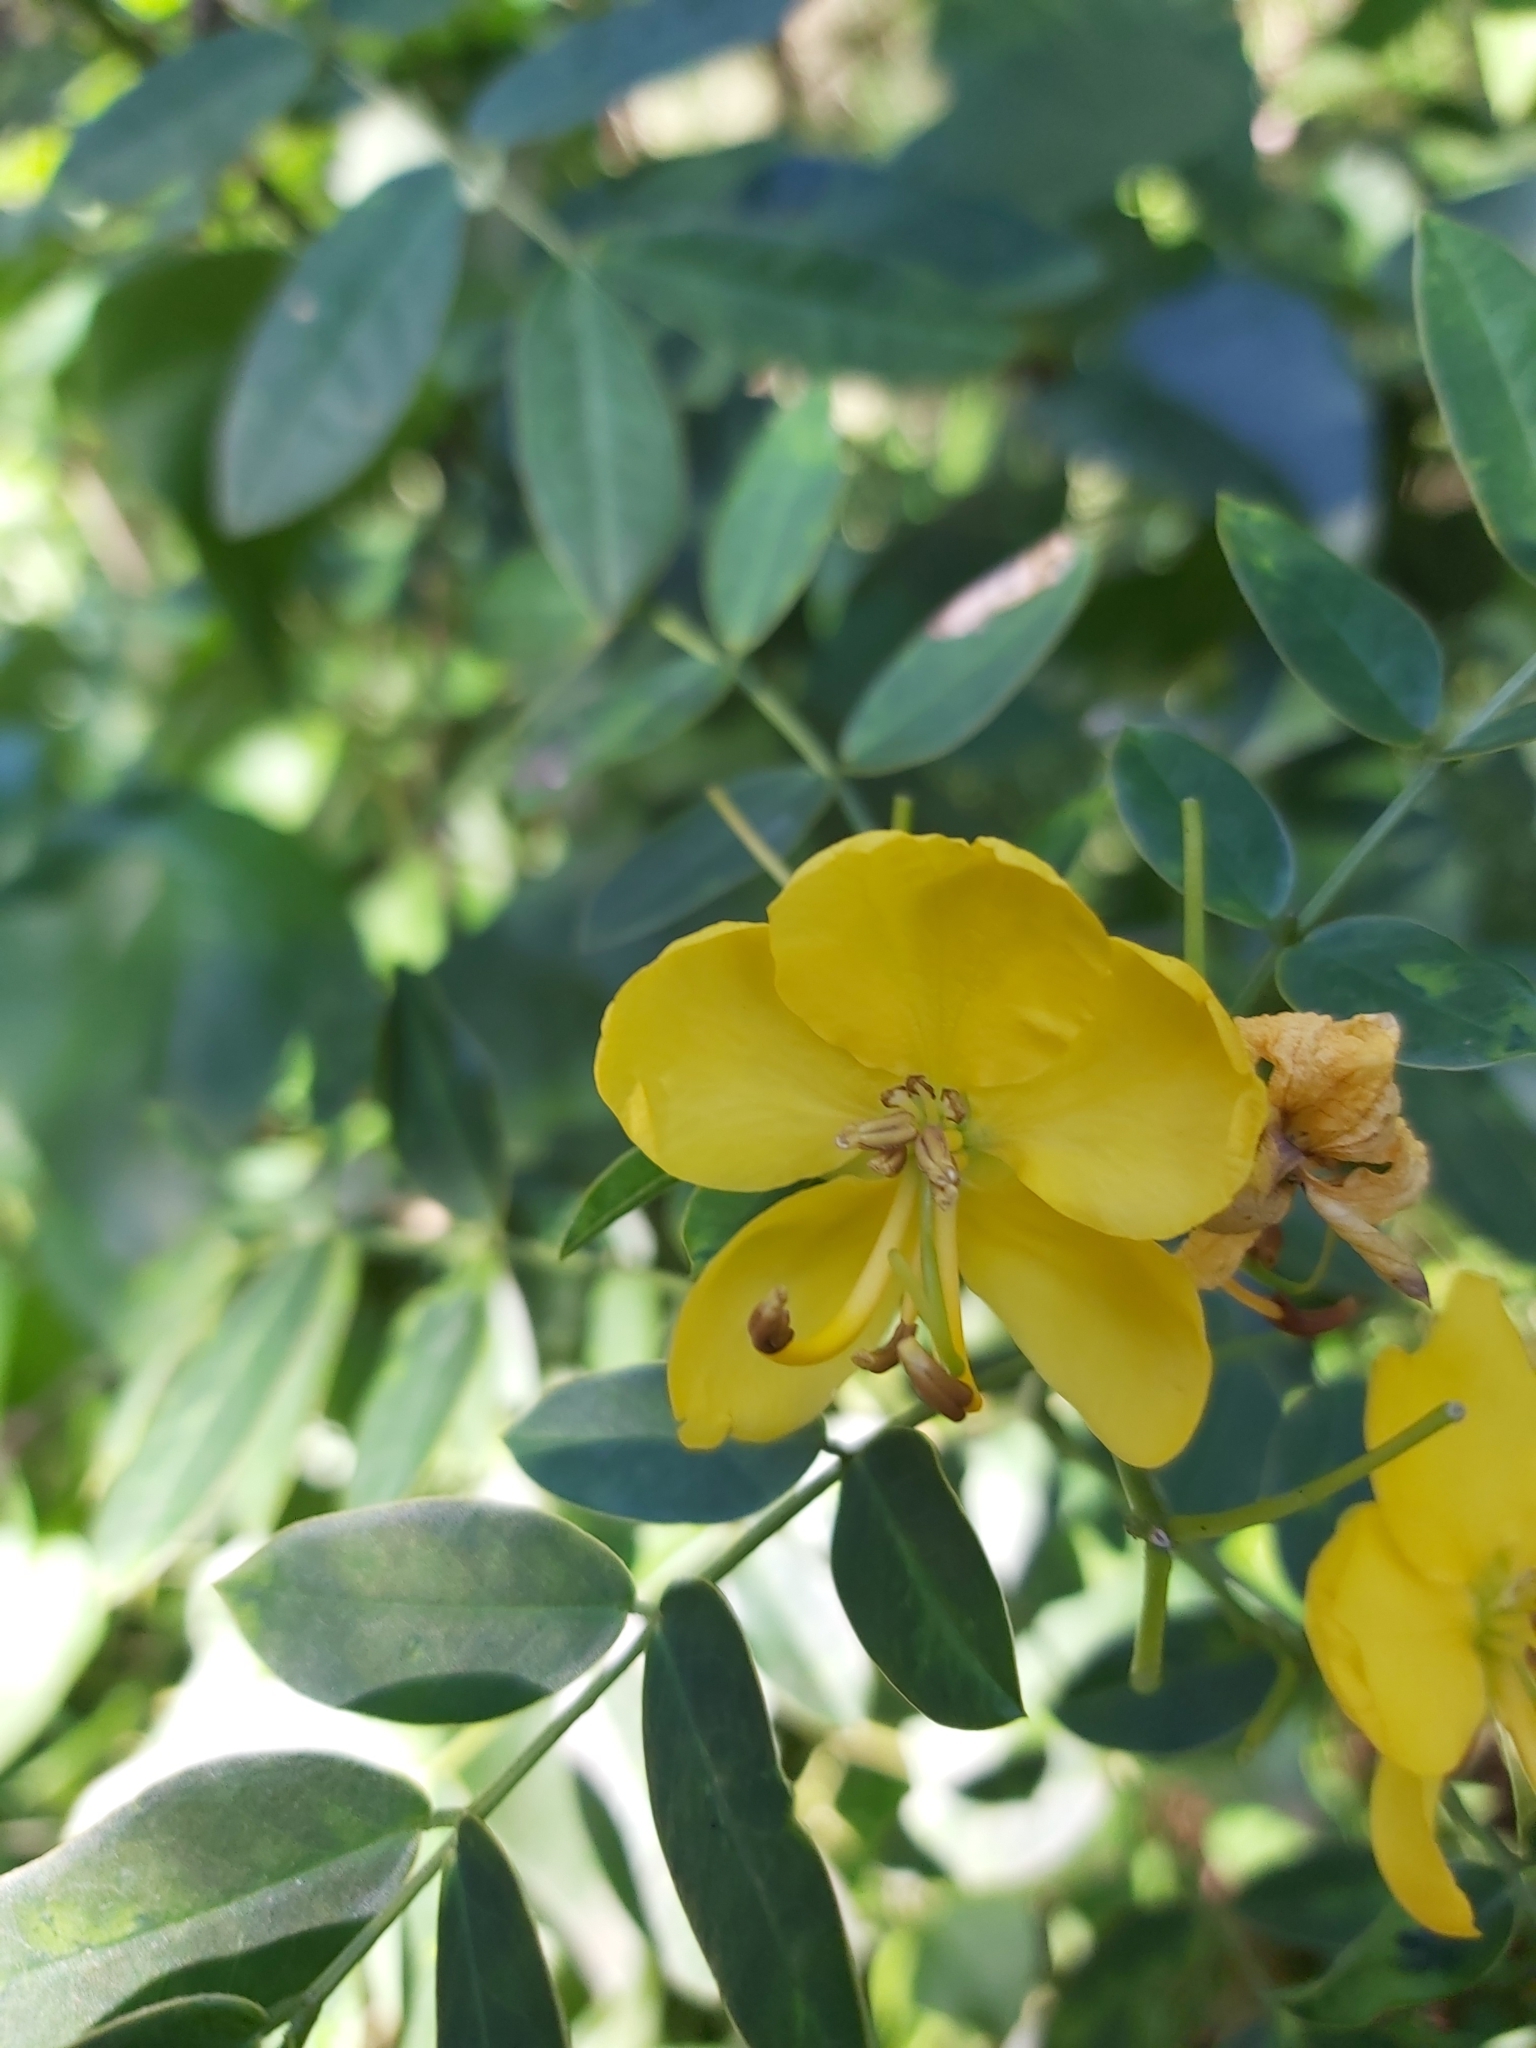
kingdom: Plantae
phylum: Tracheophyta
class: Magnoliopsida
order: Fabales
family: Fabaceae
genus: Senna
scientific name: Senna pendula
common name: Easter cassia
